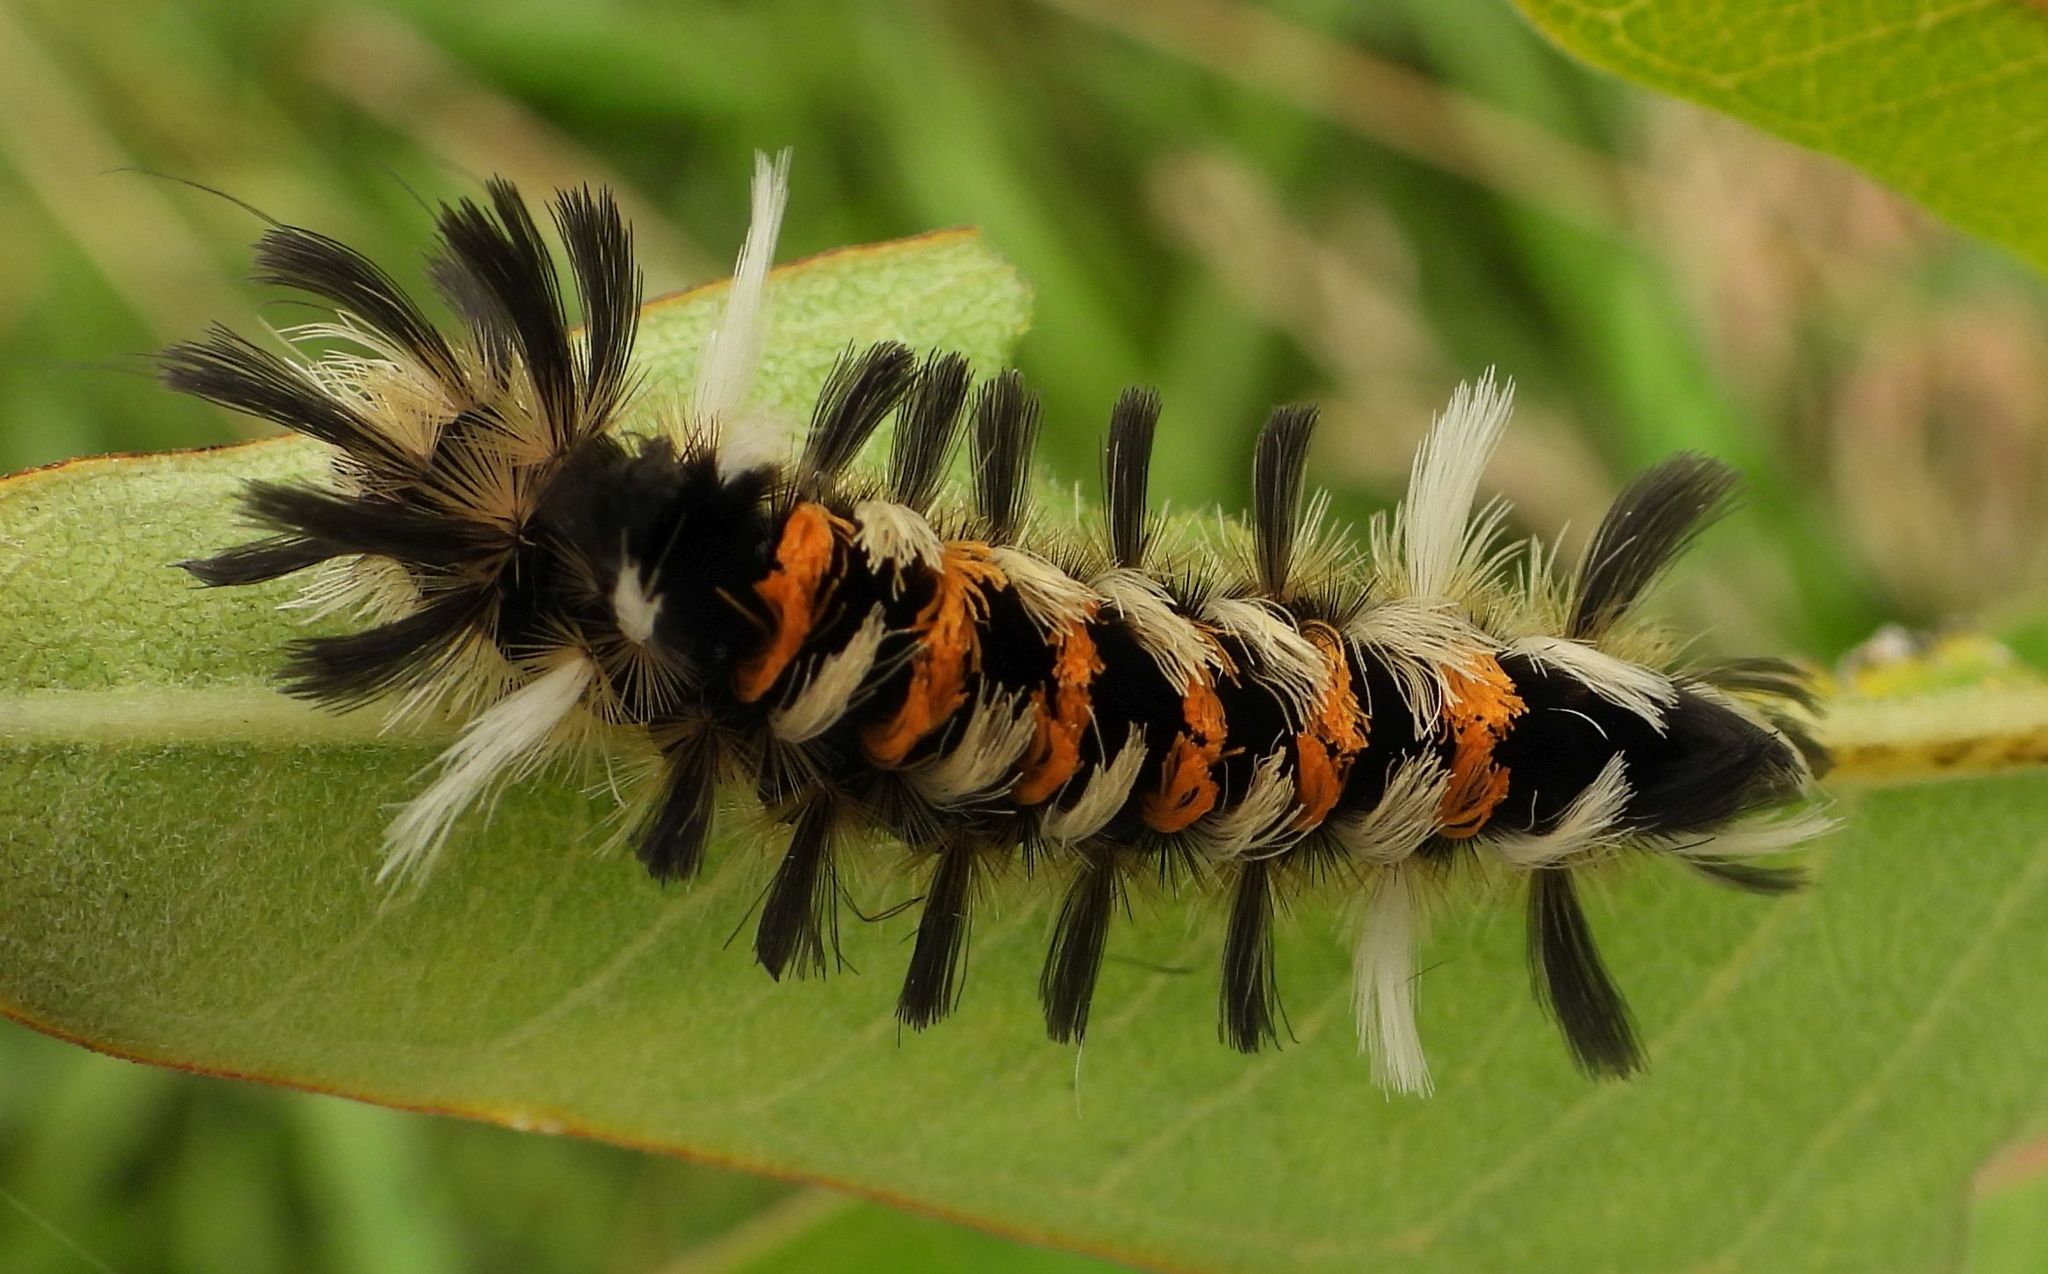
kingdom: Animalia
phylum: Arthropoda
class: Insecta
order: Lepidoptera
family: Erebidae
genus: Euchaetes
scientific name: Euchaetes egle
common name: Milkweed tussock moth
